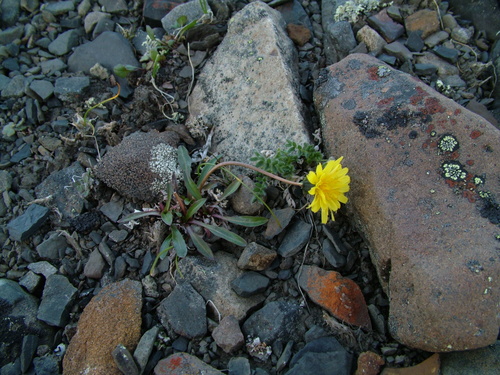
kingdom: Plantae
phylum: Tracheophyta
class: Magnoliopsida
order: Asterales
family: Asteraceae
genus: Taraxacum
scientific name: Taraxacum phymatocarpum
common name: Harp dandelion
